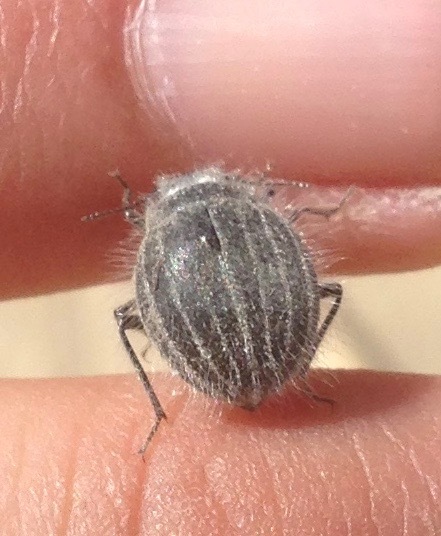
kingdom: Animalia
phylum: Arthropoda
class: Insecta
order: Coleoptera
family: Tenebrionidae
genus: Edrotes
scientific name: Edrotes ventricosus
